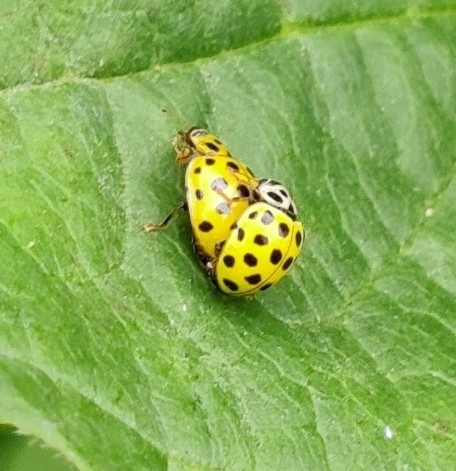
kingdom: Animalia
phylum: Arthropoda
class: Insecta
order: Coleoptera
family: Coccinellidae
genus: Psyllobora
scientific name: Psyllobora vigintiduopunctata
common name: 22-spot ladybird
